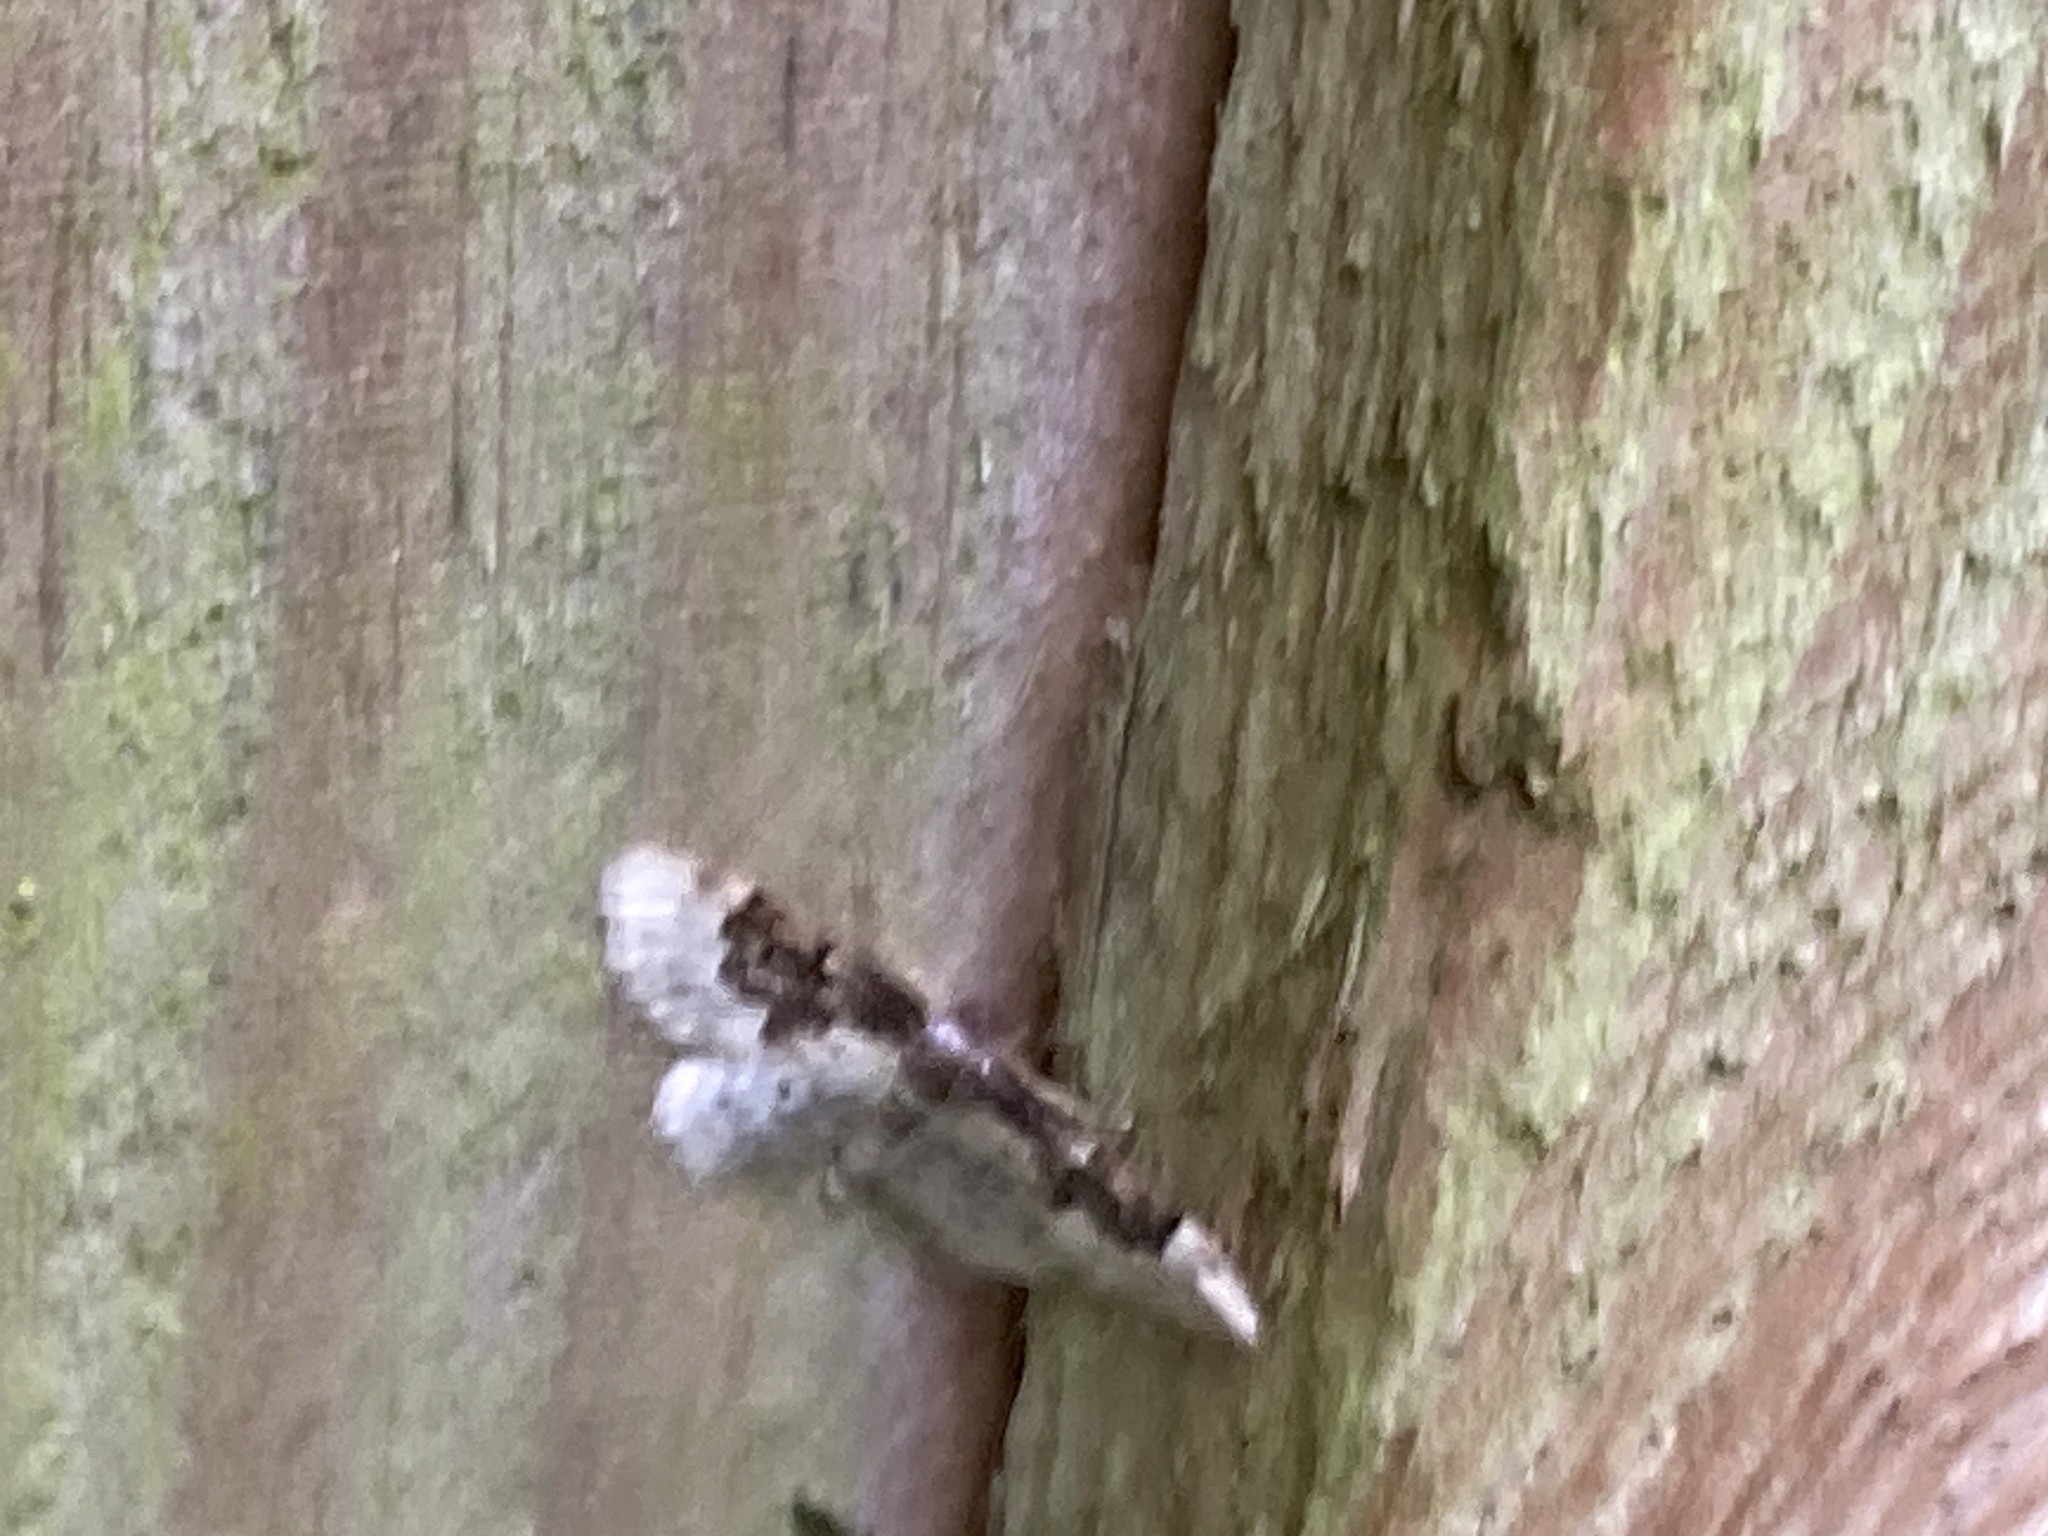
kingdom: Animalia
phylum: Arthropoda
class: Insecta
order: Lepidoptera
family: Geometridae
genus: Idaea
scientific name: Idaea rusticata
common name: Least carpet
